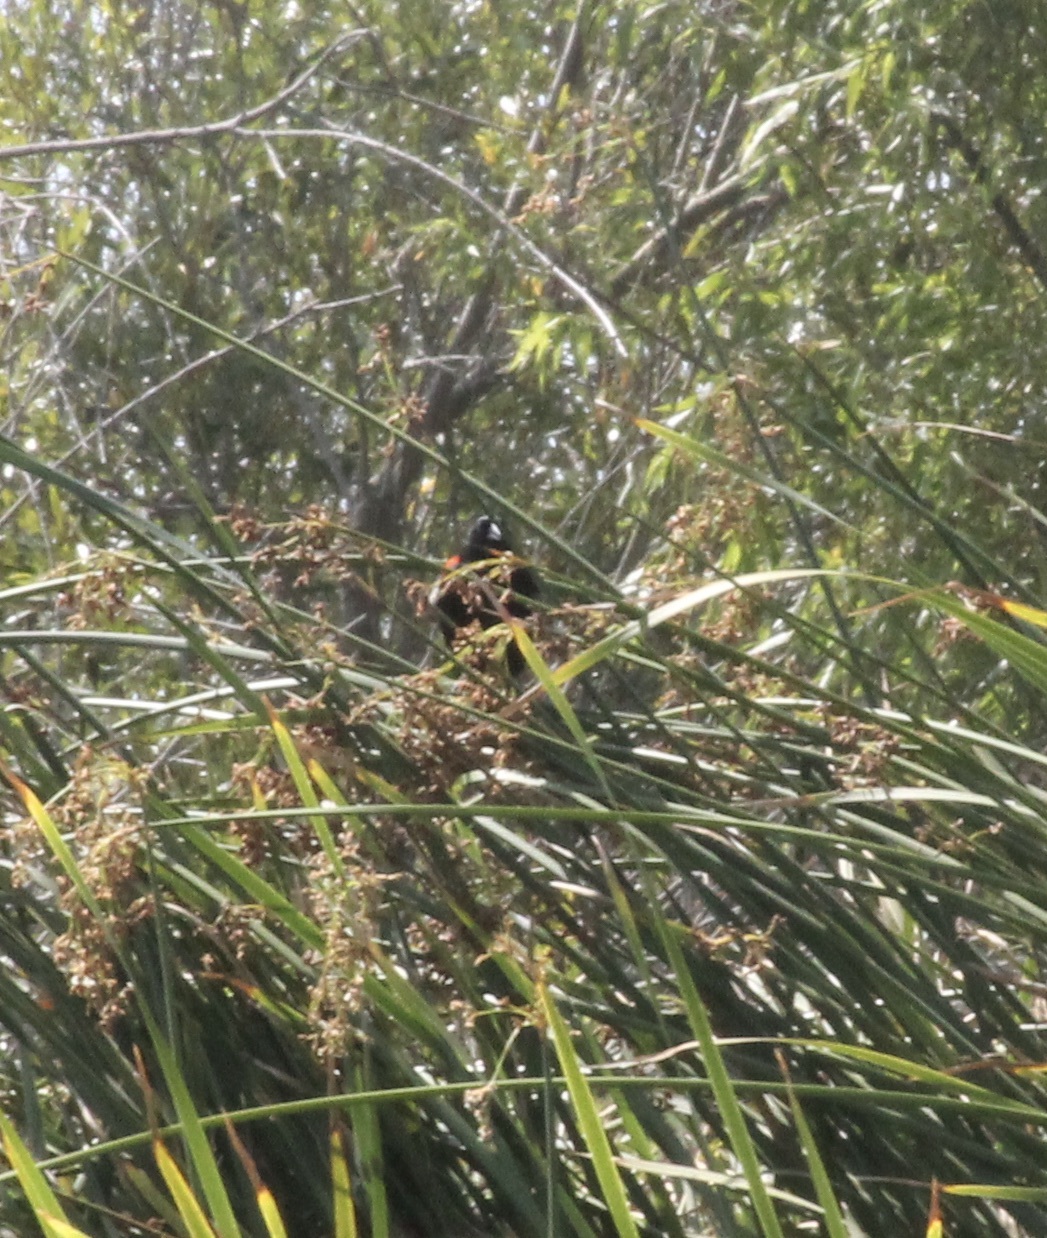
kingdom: Animalia
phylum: Chordata
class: Aves
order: Passeriformes
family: Icteridae
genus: Agelaius
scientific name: Agelaius phoeniceus
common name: Red-winged blackbird
